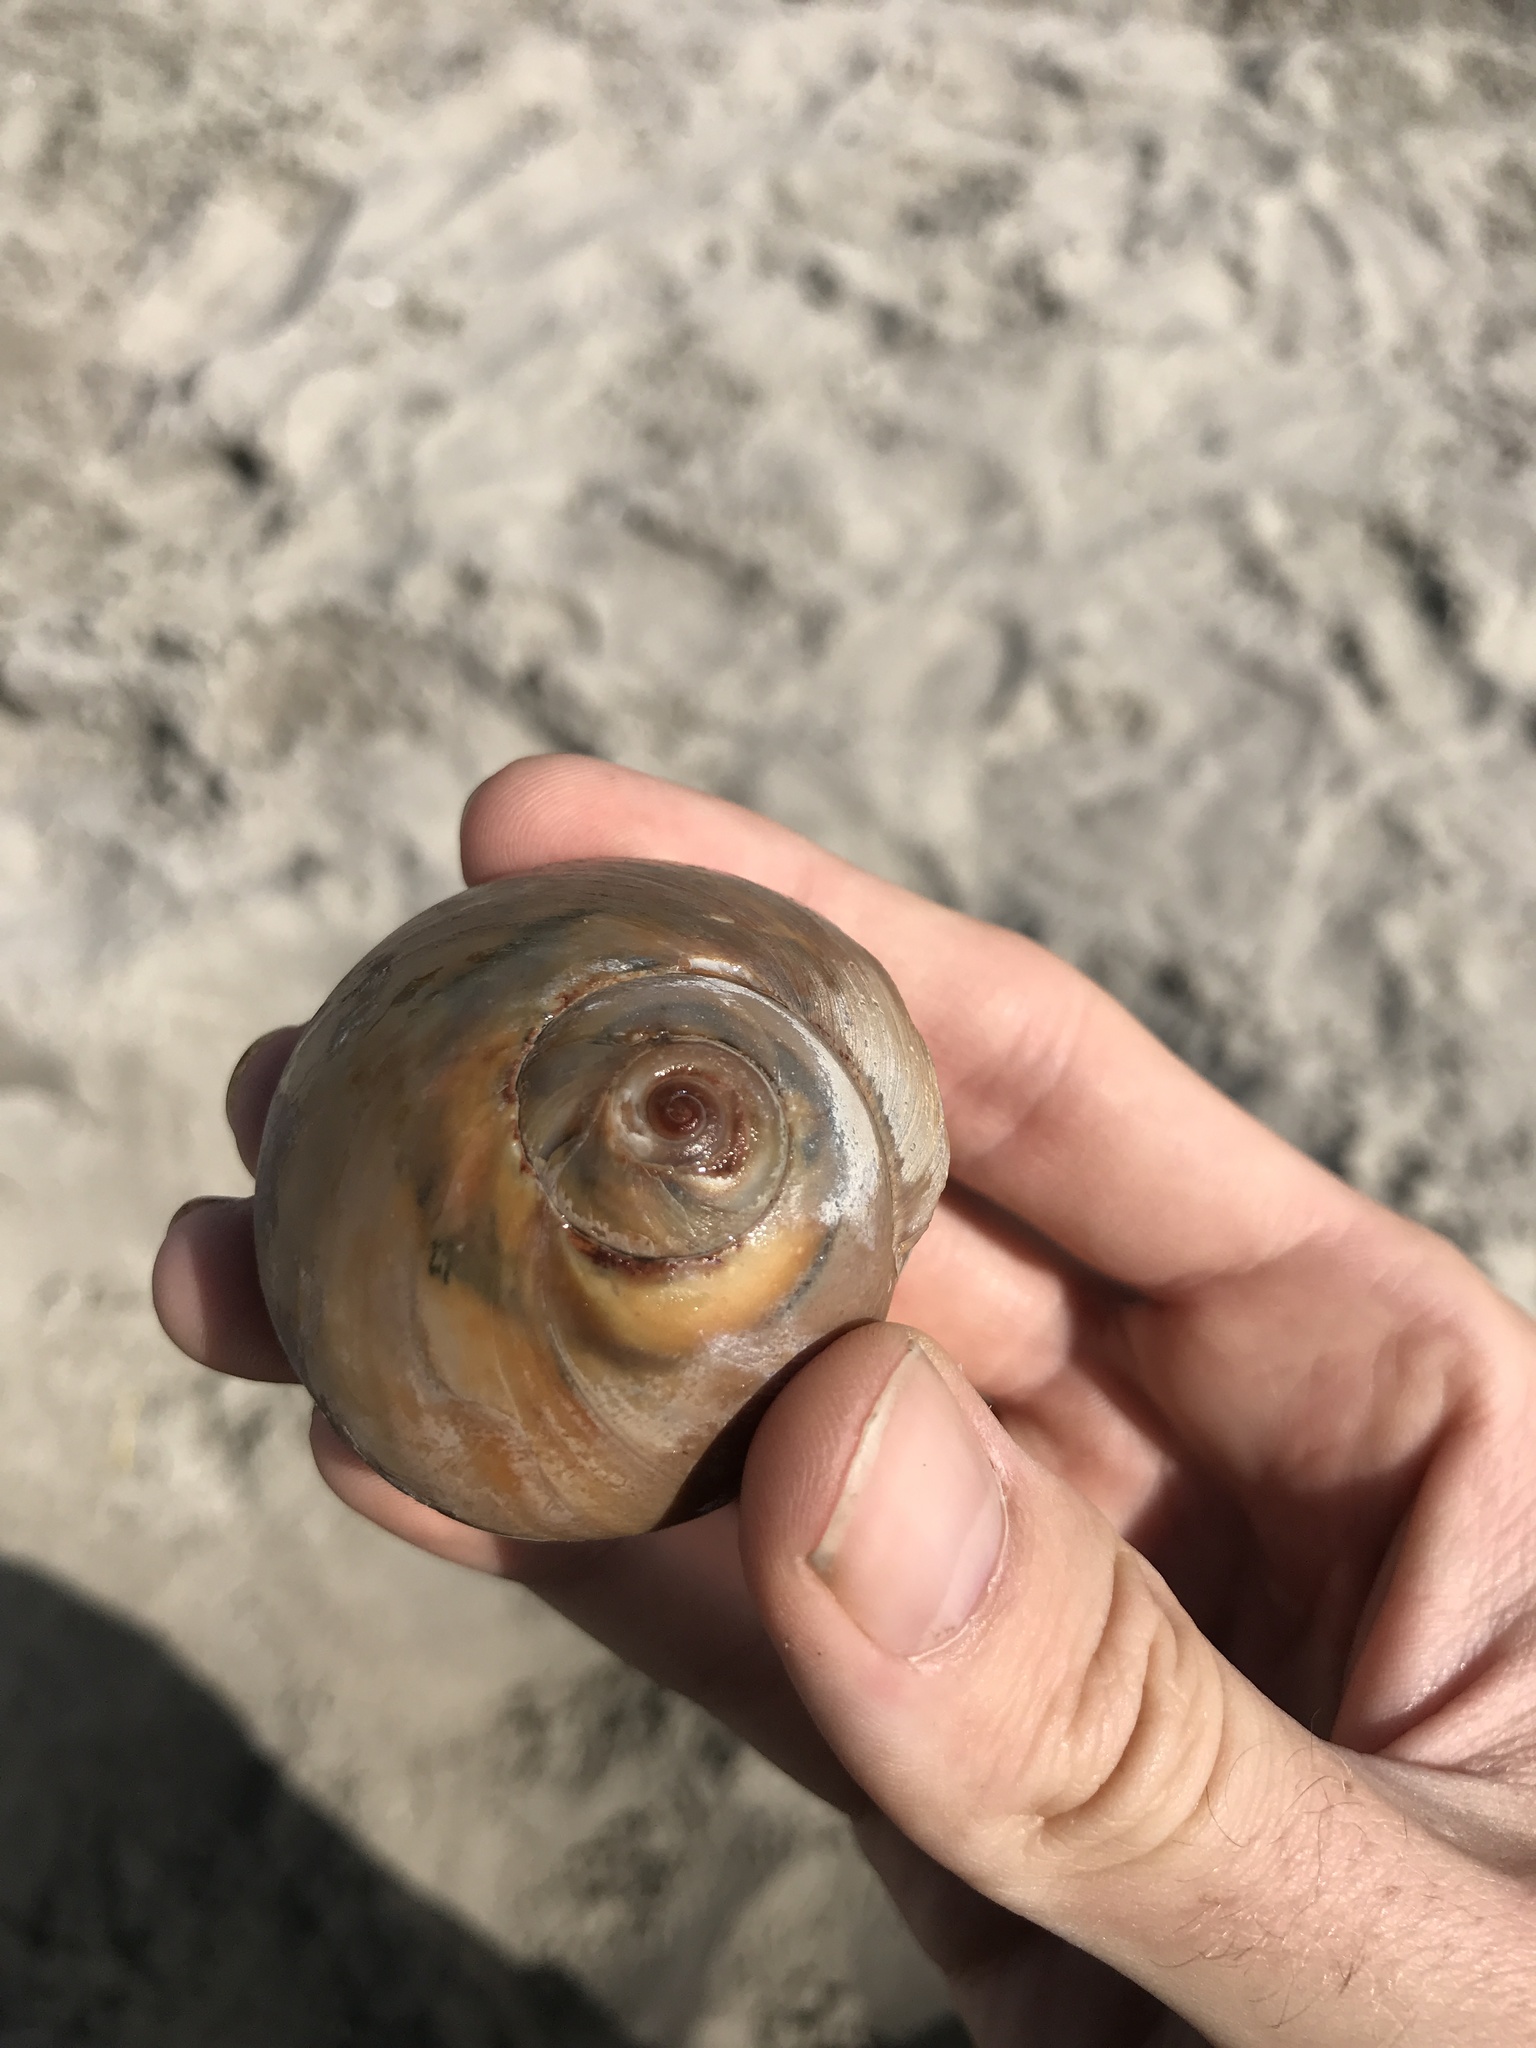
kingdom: Animalia
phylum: Mollusca
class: Gastropoda
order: Littorinimorpha
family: Naticidae
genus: Neverita
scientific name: Neverita duplicata
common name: Lobed moonsnail
